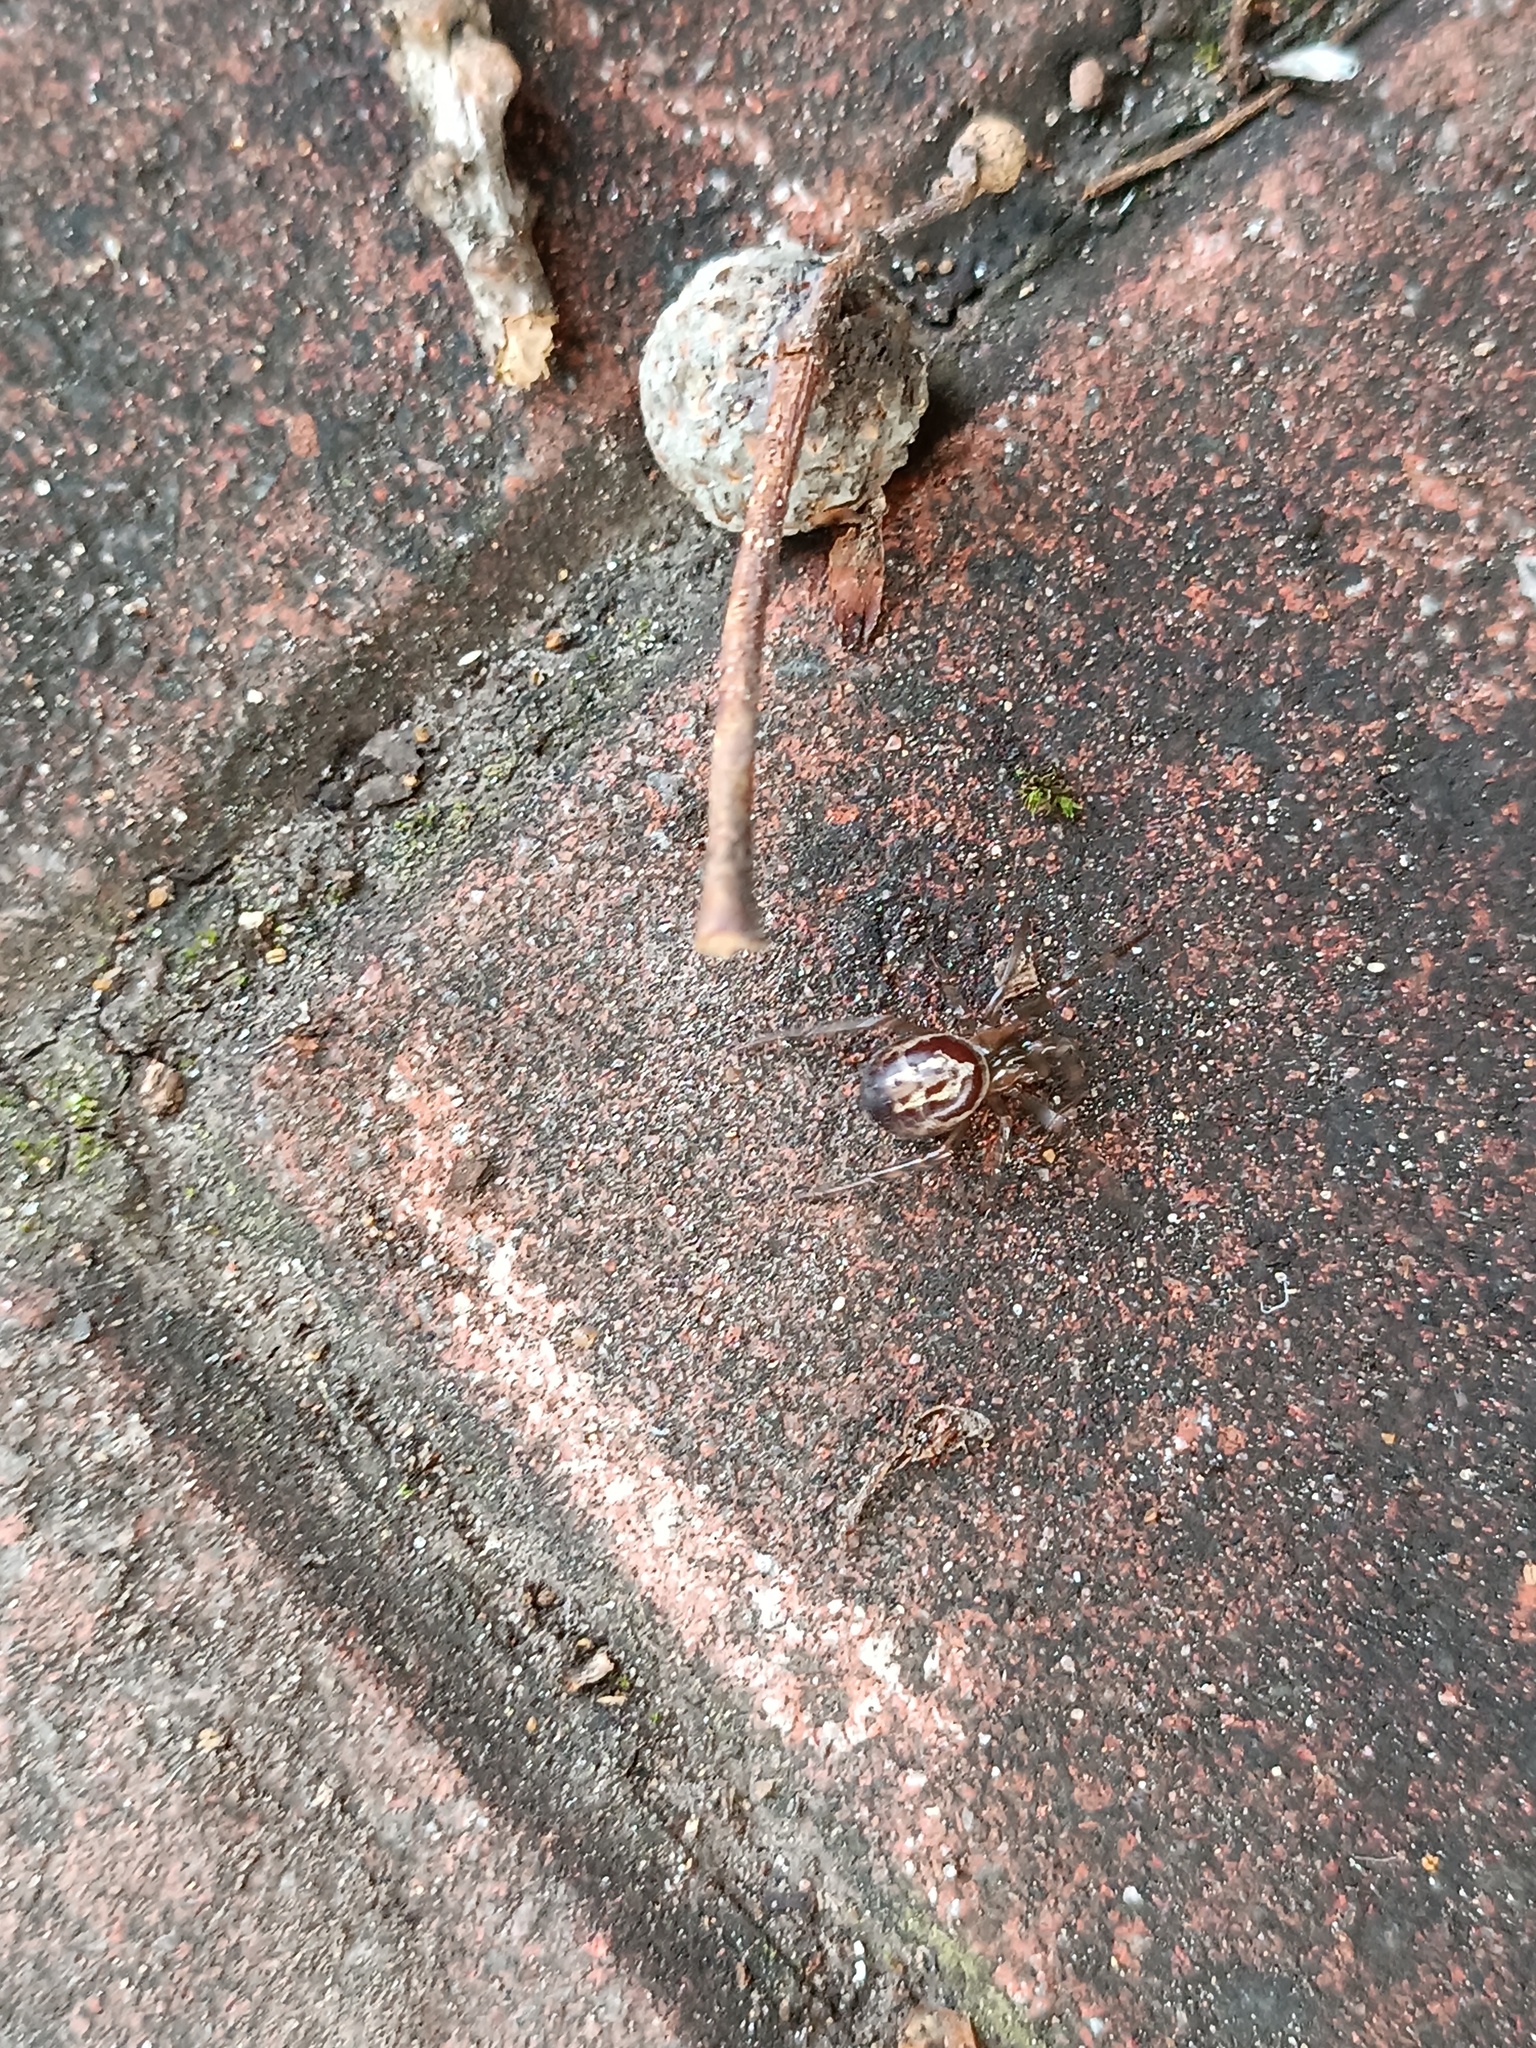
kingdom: Animalia
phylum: Arthropoda
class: Arachnida
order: Araneae
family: Theridiidae
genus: Steatoda
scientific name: Steatoda nobilis
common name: Cobweb weaver
